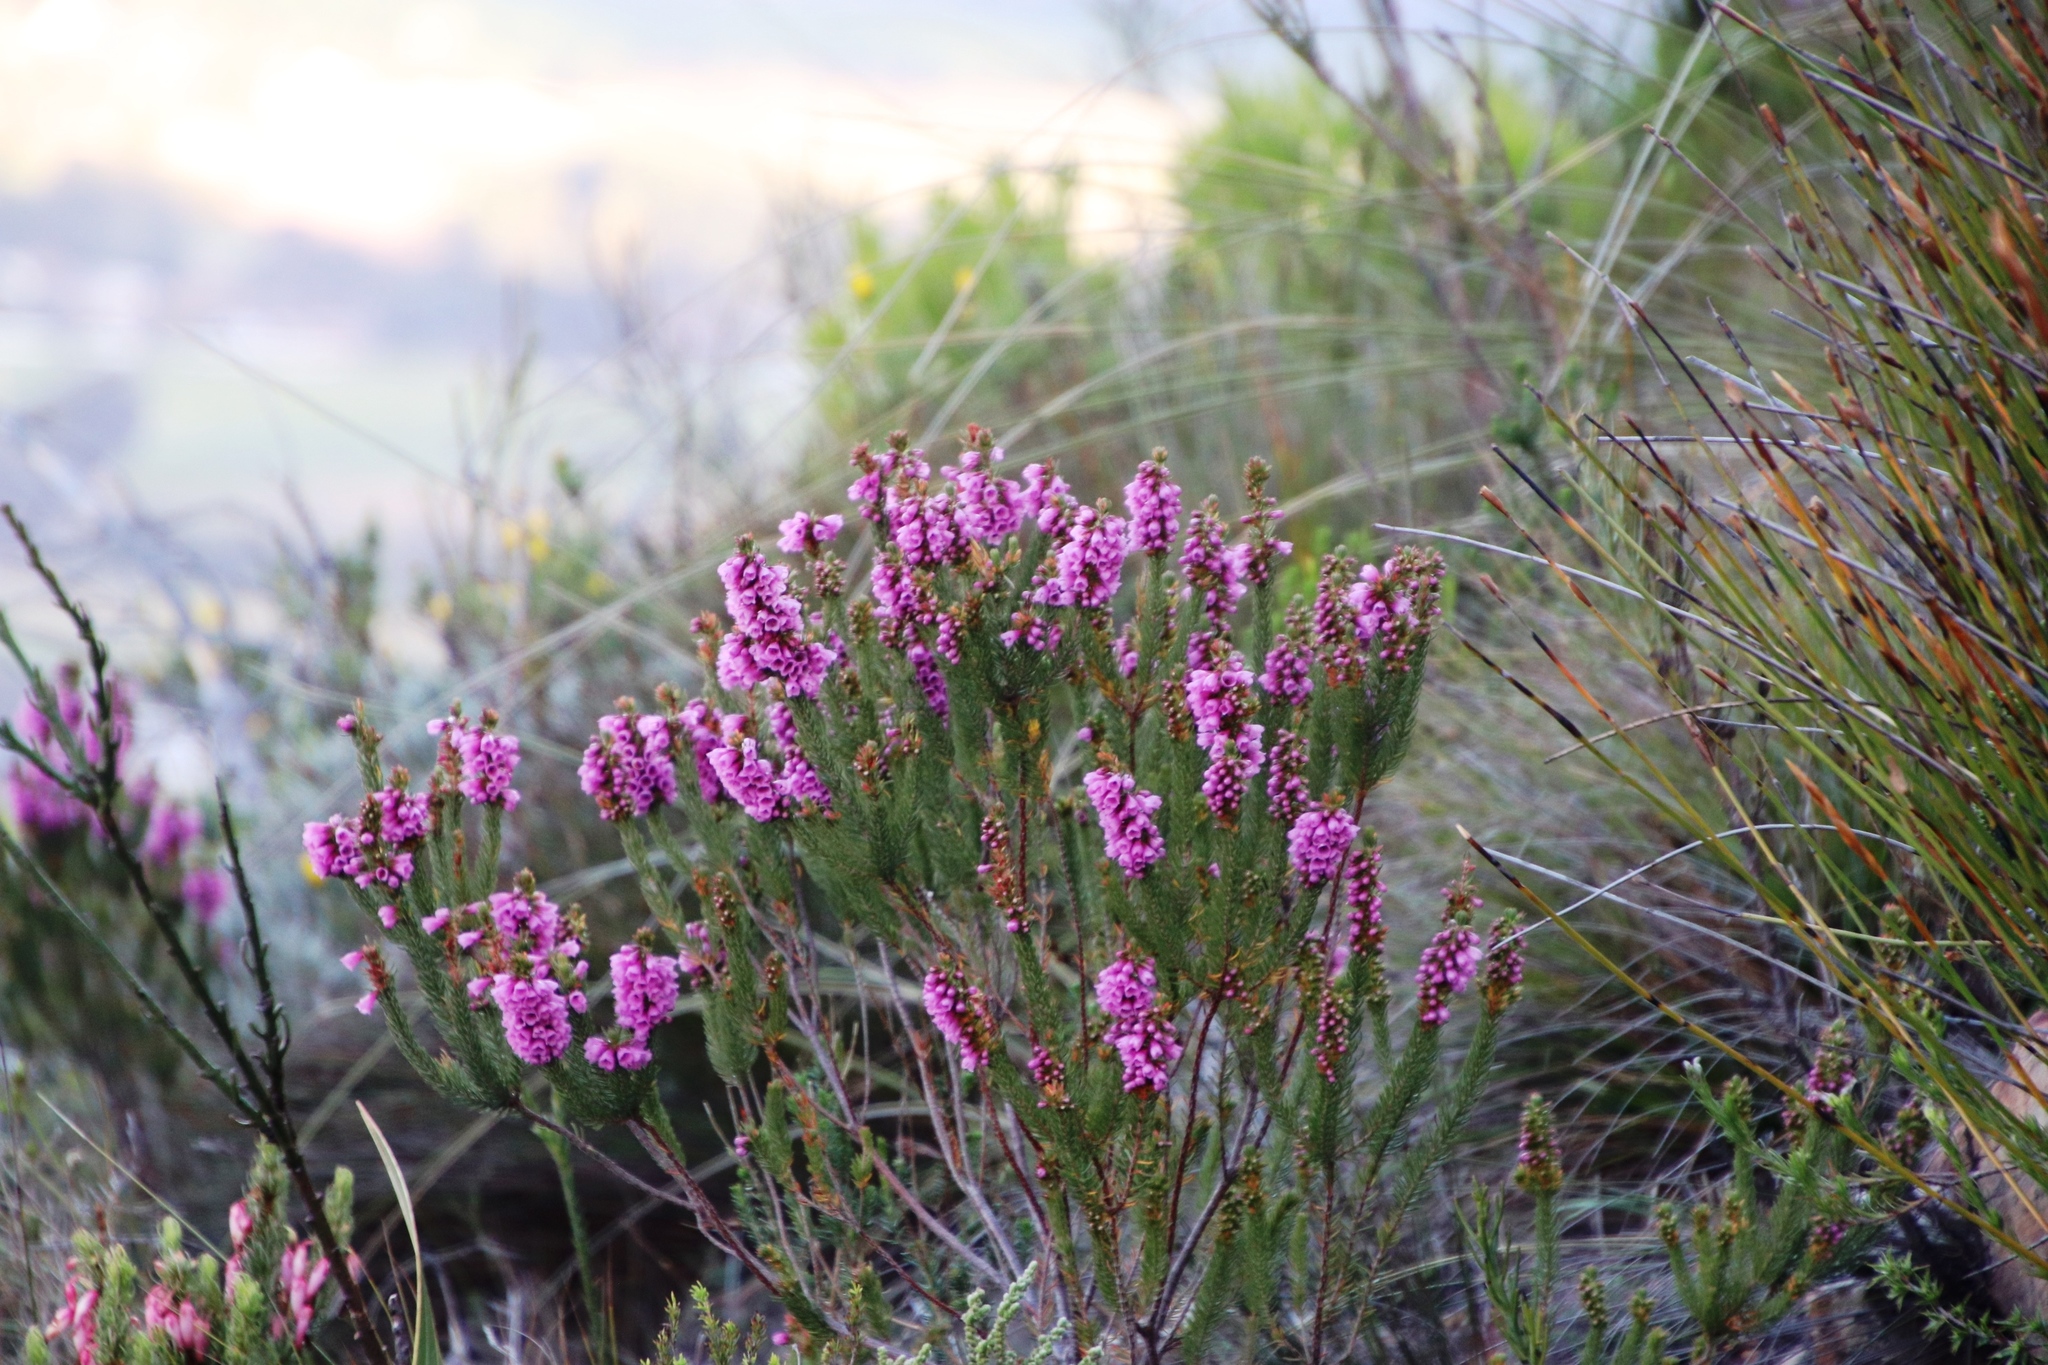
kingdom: Plantae
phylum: Tracheophyta
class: Magnoliopsida
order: Ericales
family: Ericaceae
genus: Erica
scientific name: Erica abietina
